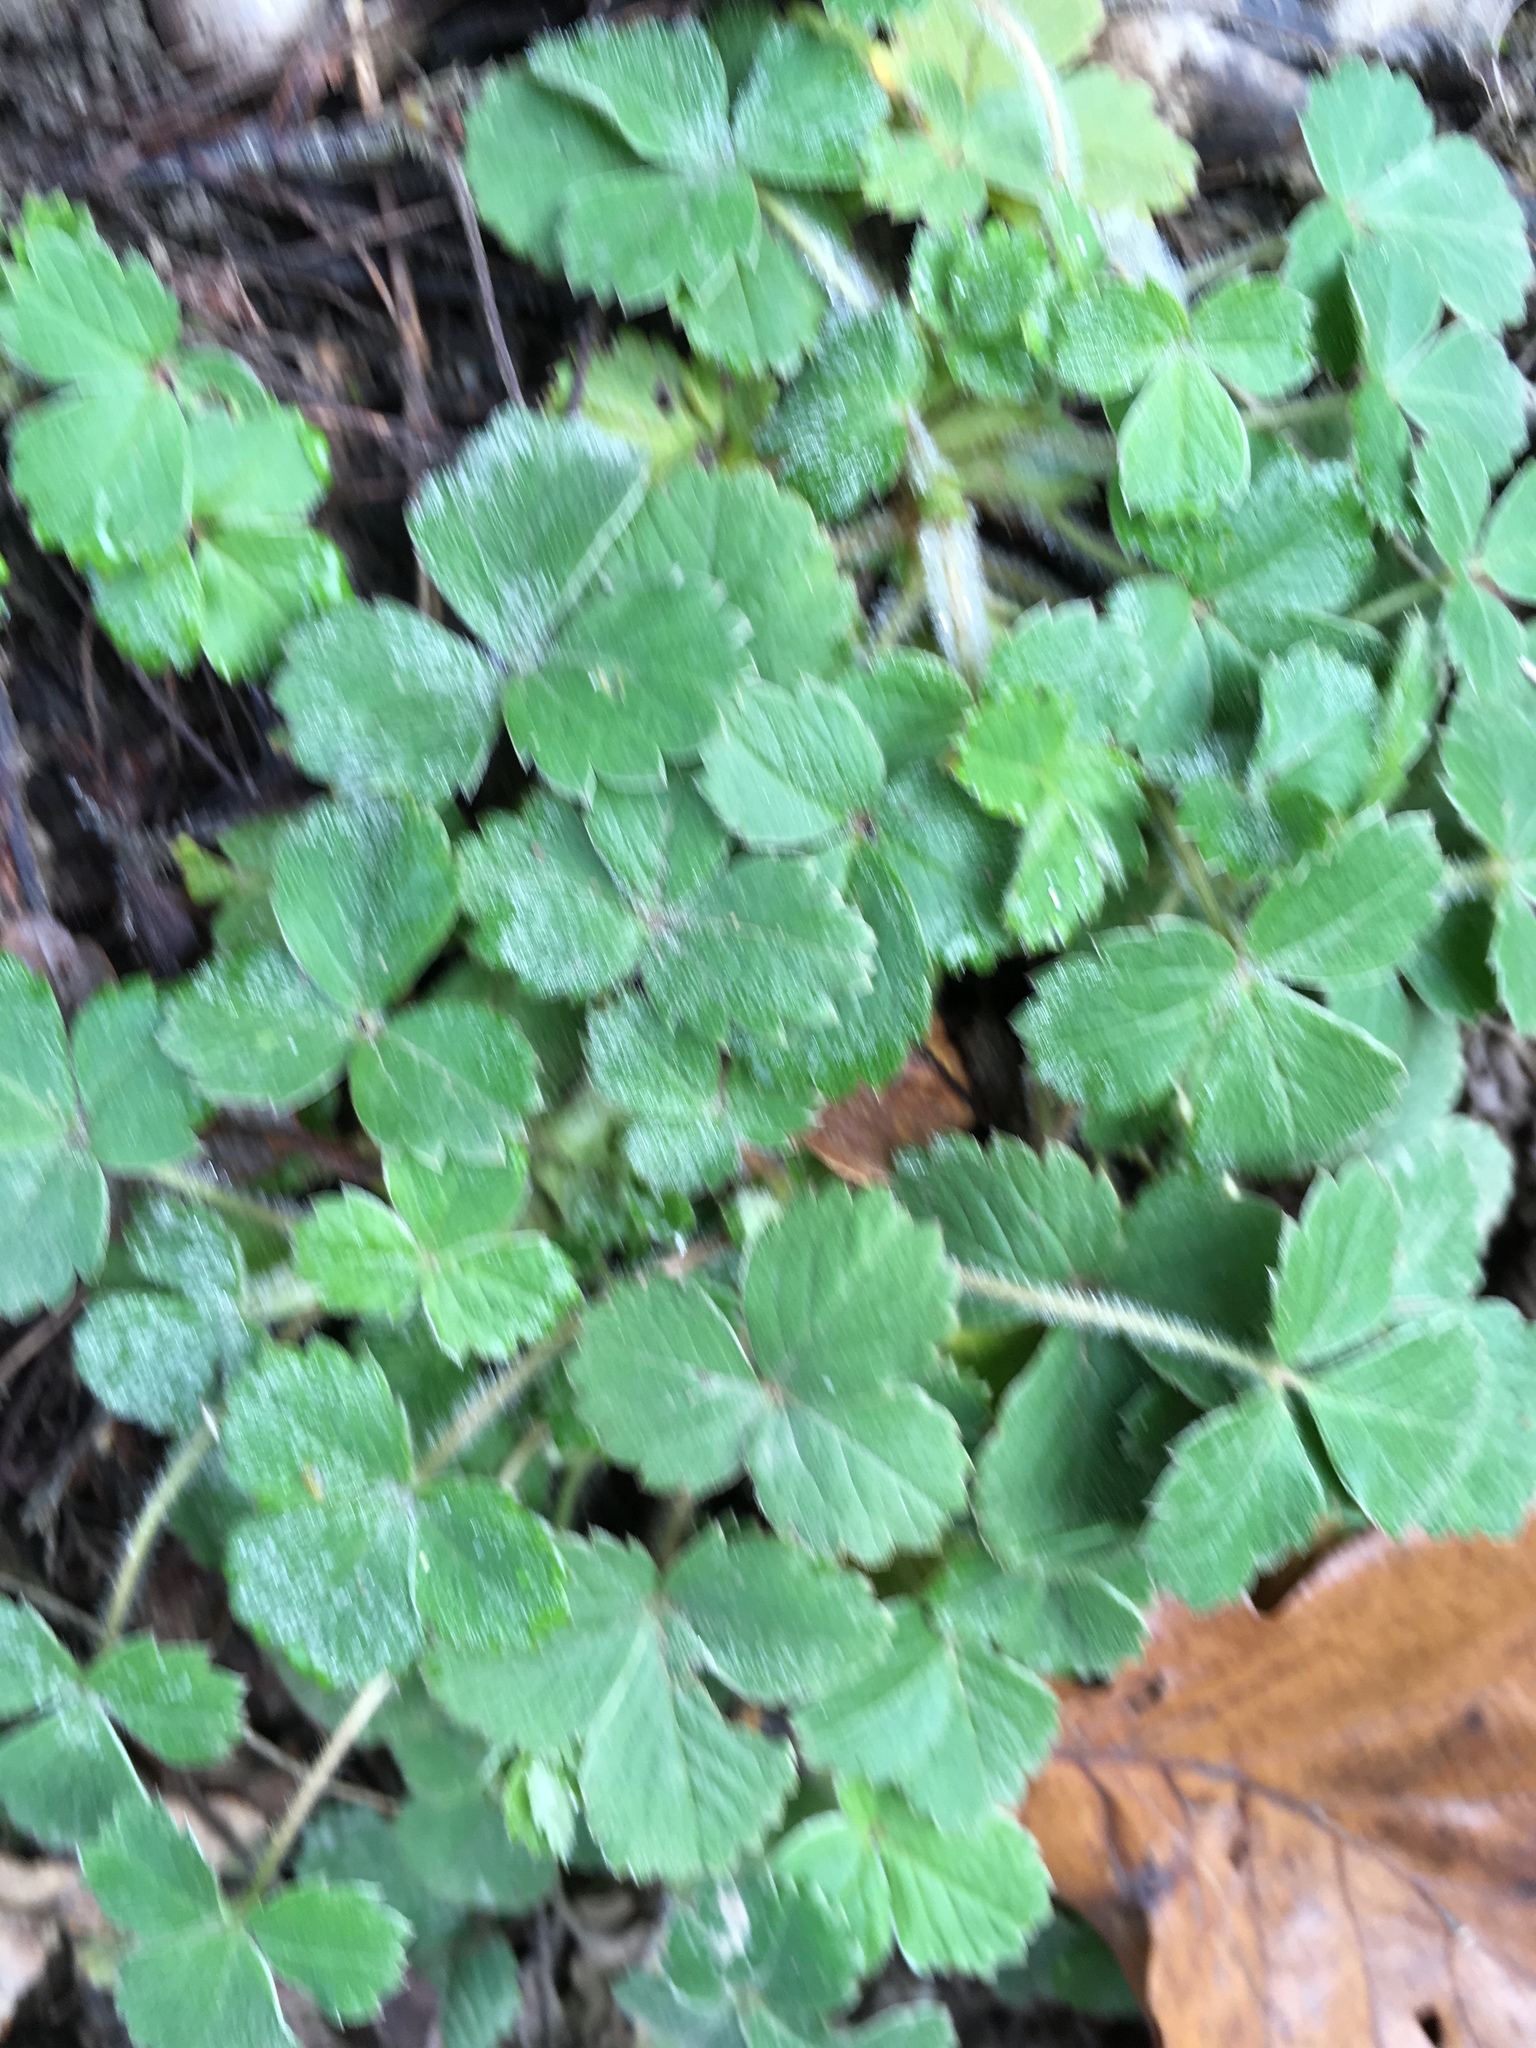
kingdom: Plantae
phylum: Tracheophyta
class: Magnoliopsida
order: Rosales
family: Rosaceae
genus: Potentilla
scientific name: Potentilla sterilis
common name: Barren strawberry
